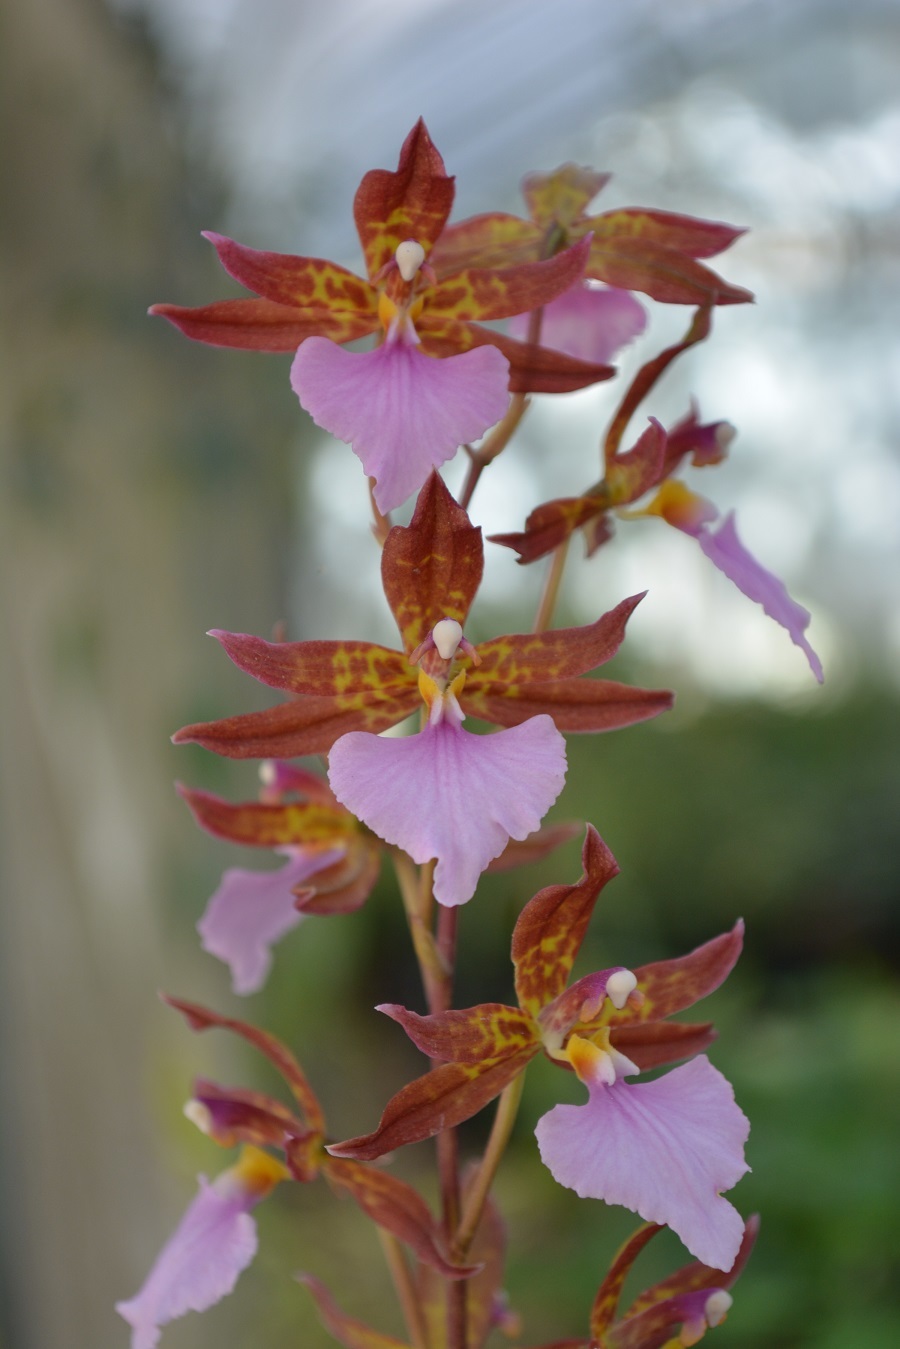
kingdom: Plantae
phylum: Tracheophyta
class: Liliopsida
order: Asparagales
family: Orchidaceae
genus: Rhynchostele
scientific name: Rhynchostele bictoniensis
